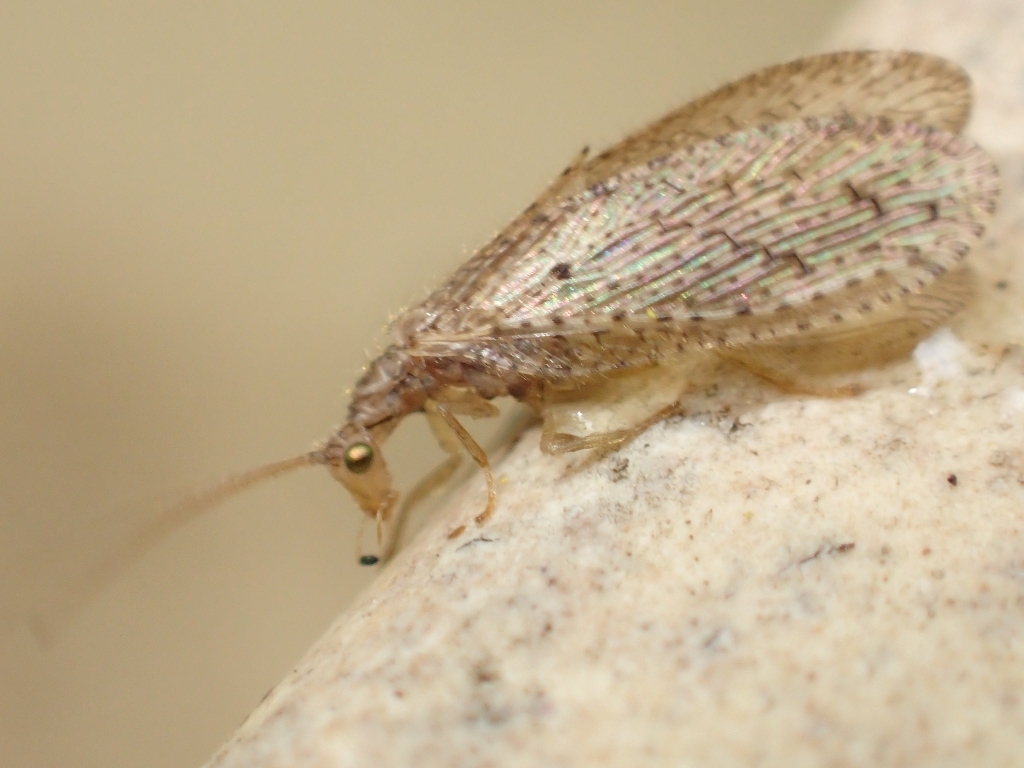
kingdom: Animalia
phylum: Arthropoda
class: Insecta
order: Neuroptera
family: Hemerobiidae
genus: Micromus
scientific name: Micromus tasmaniae
